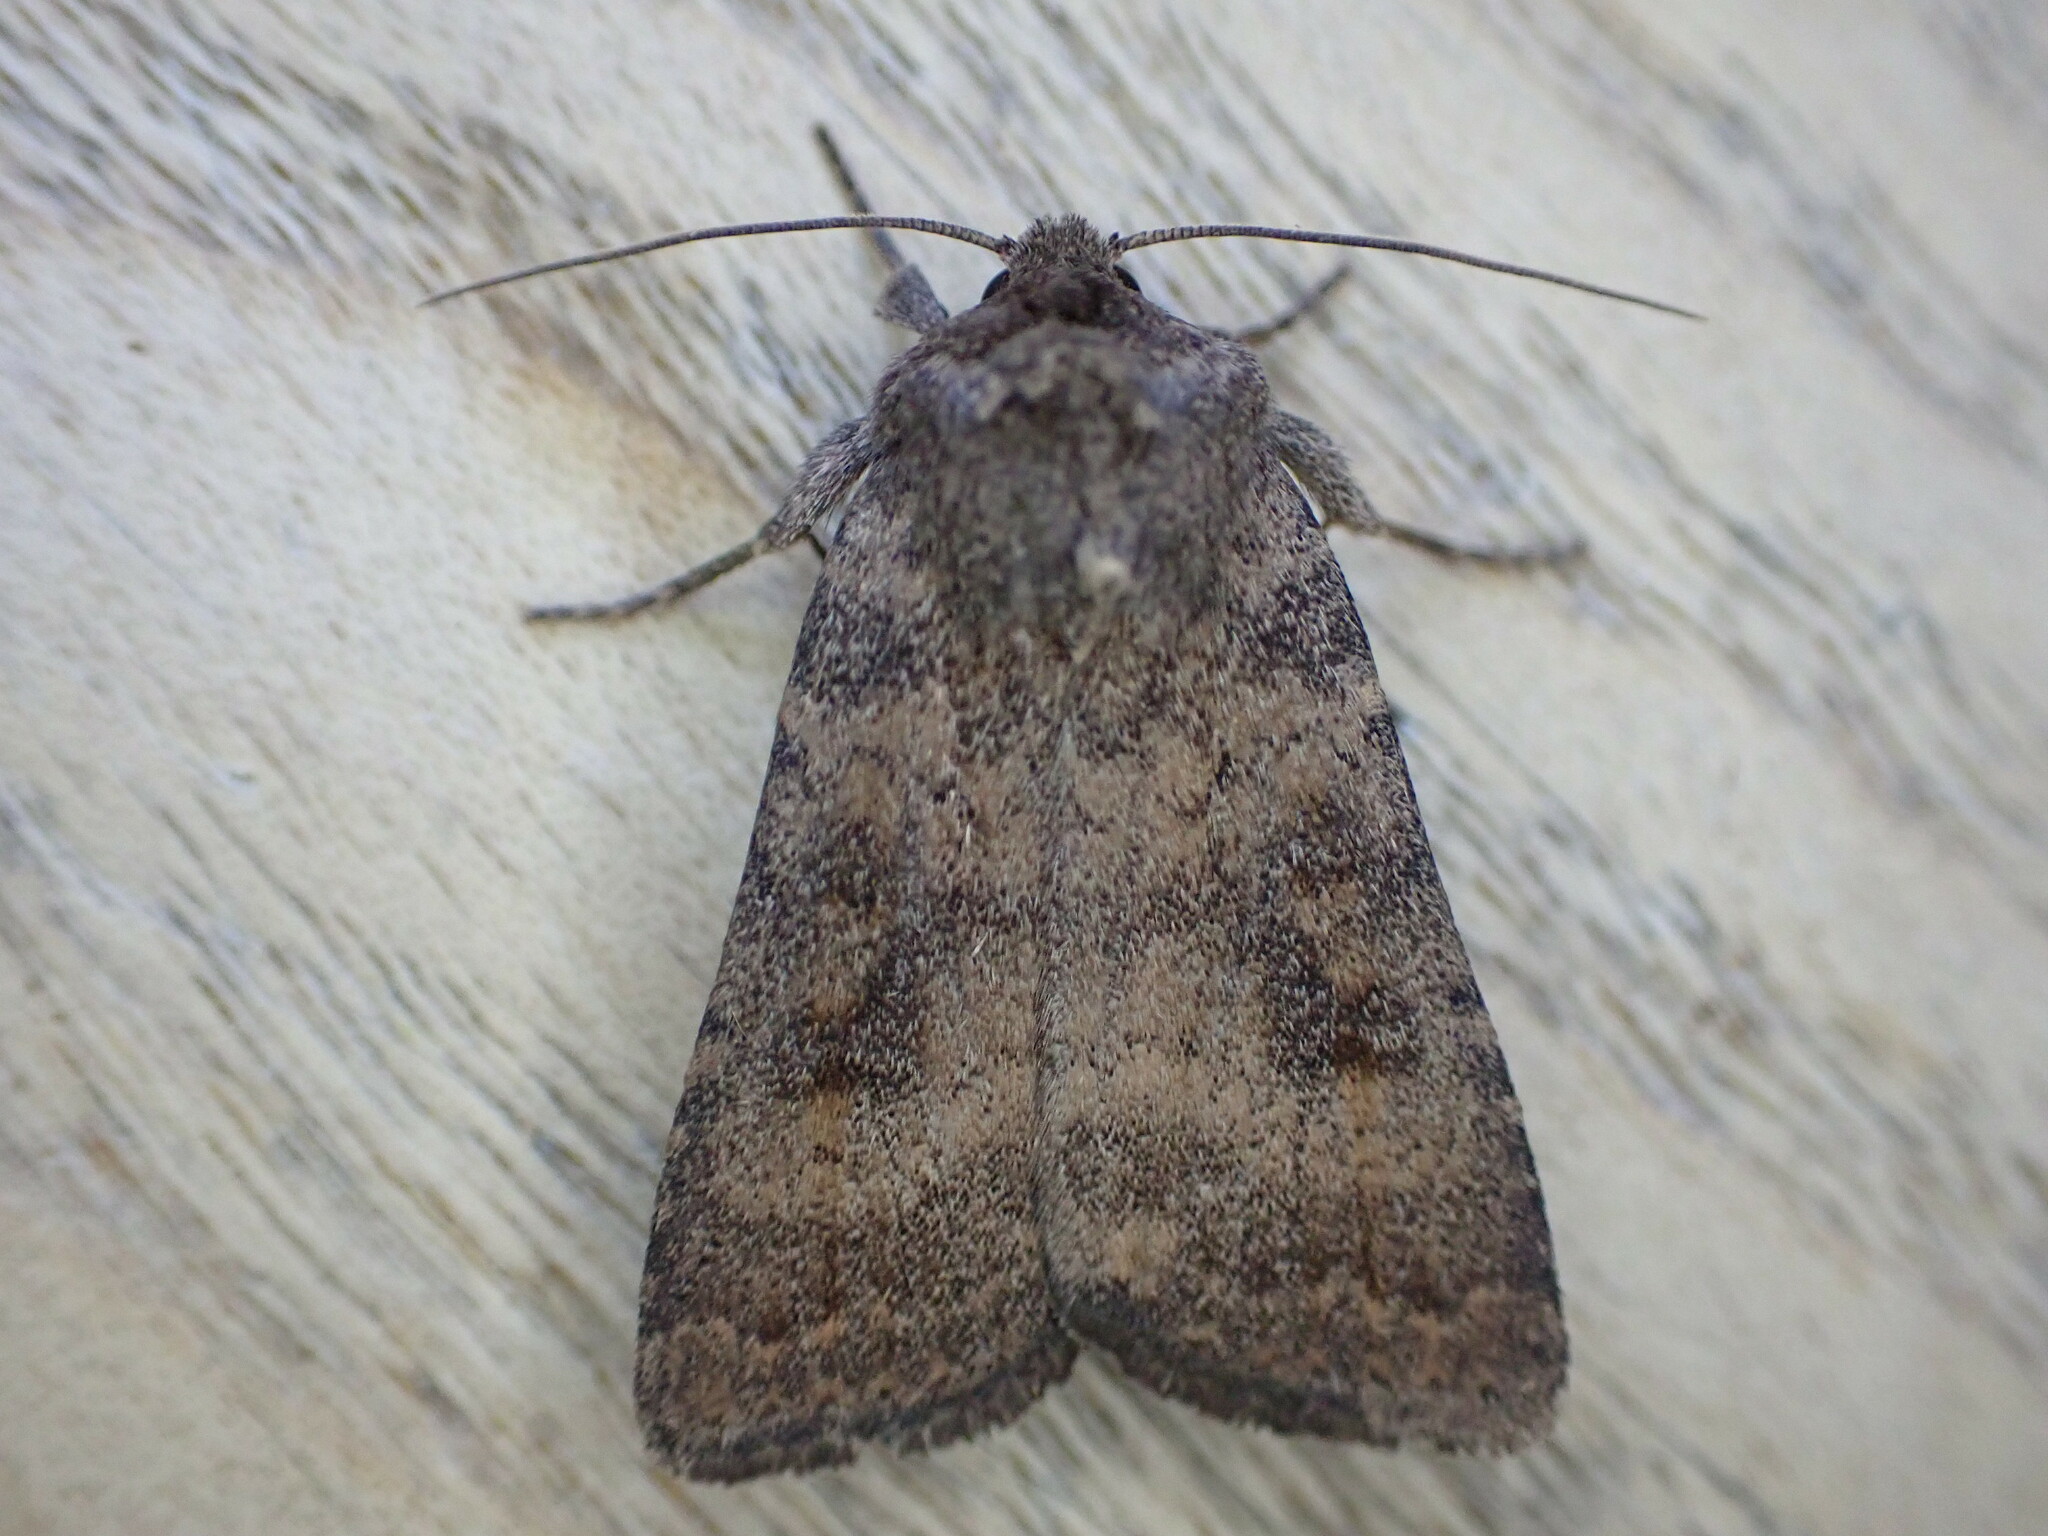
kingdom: Animalia
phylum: Arthropoda
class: Insecta
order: Lepidoptera
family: Noctuidae
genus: Caradrina
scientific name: Caradrina morpheus
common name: Mottled rustic
